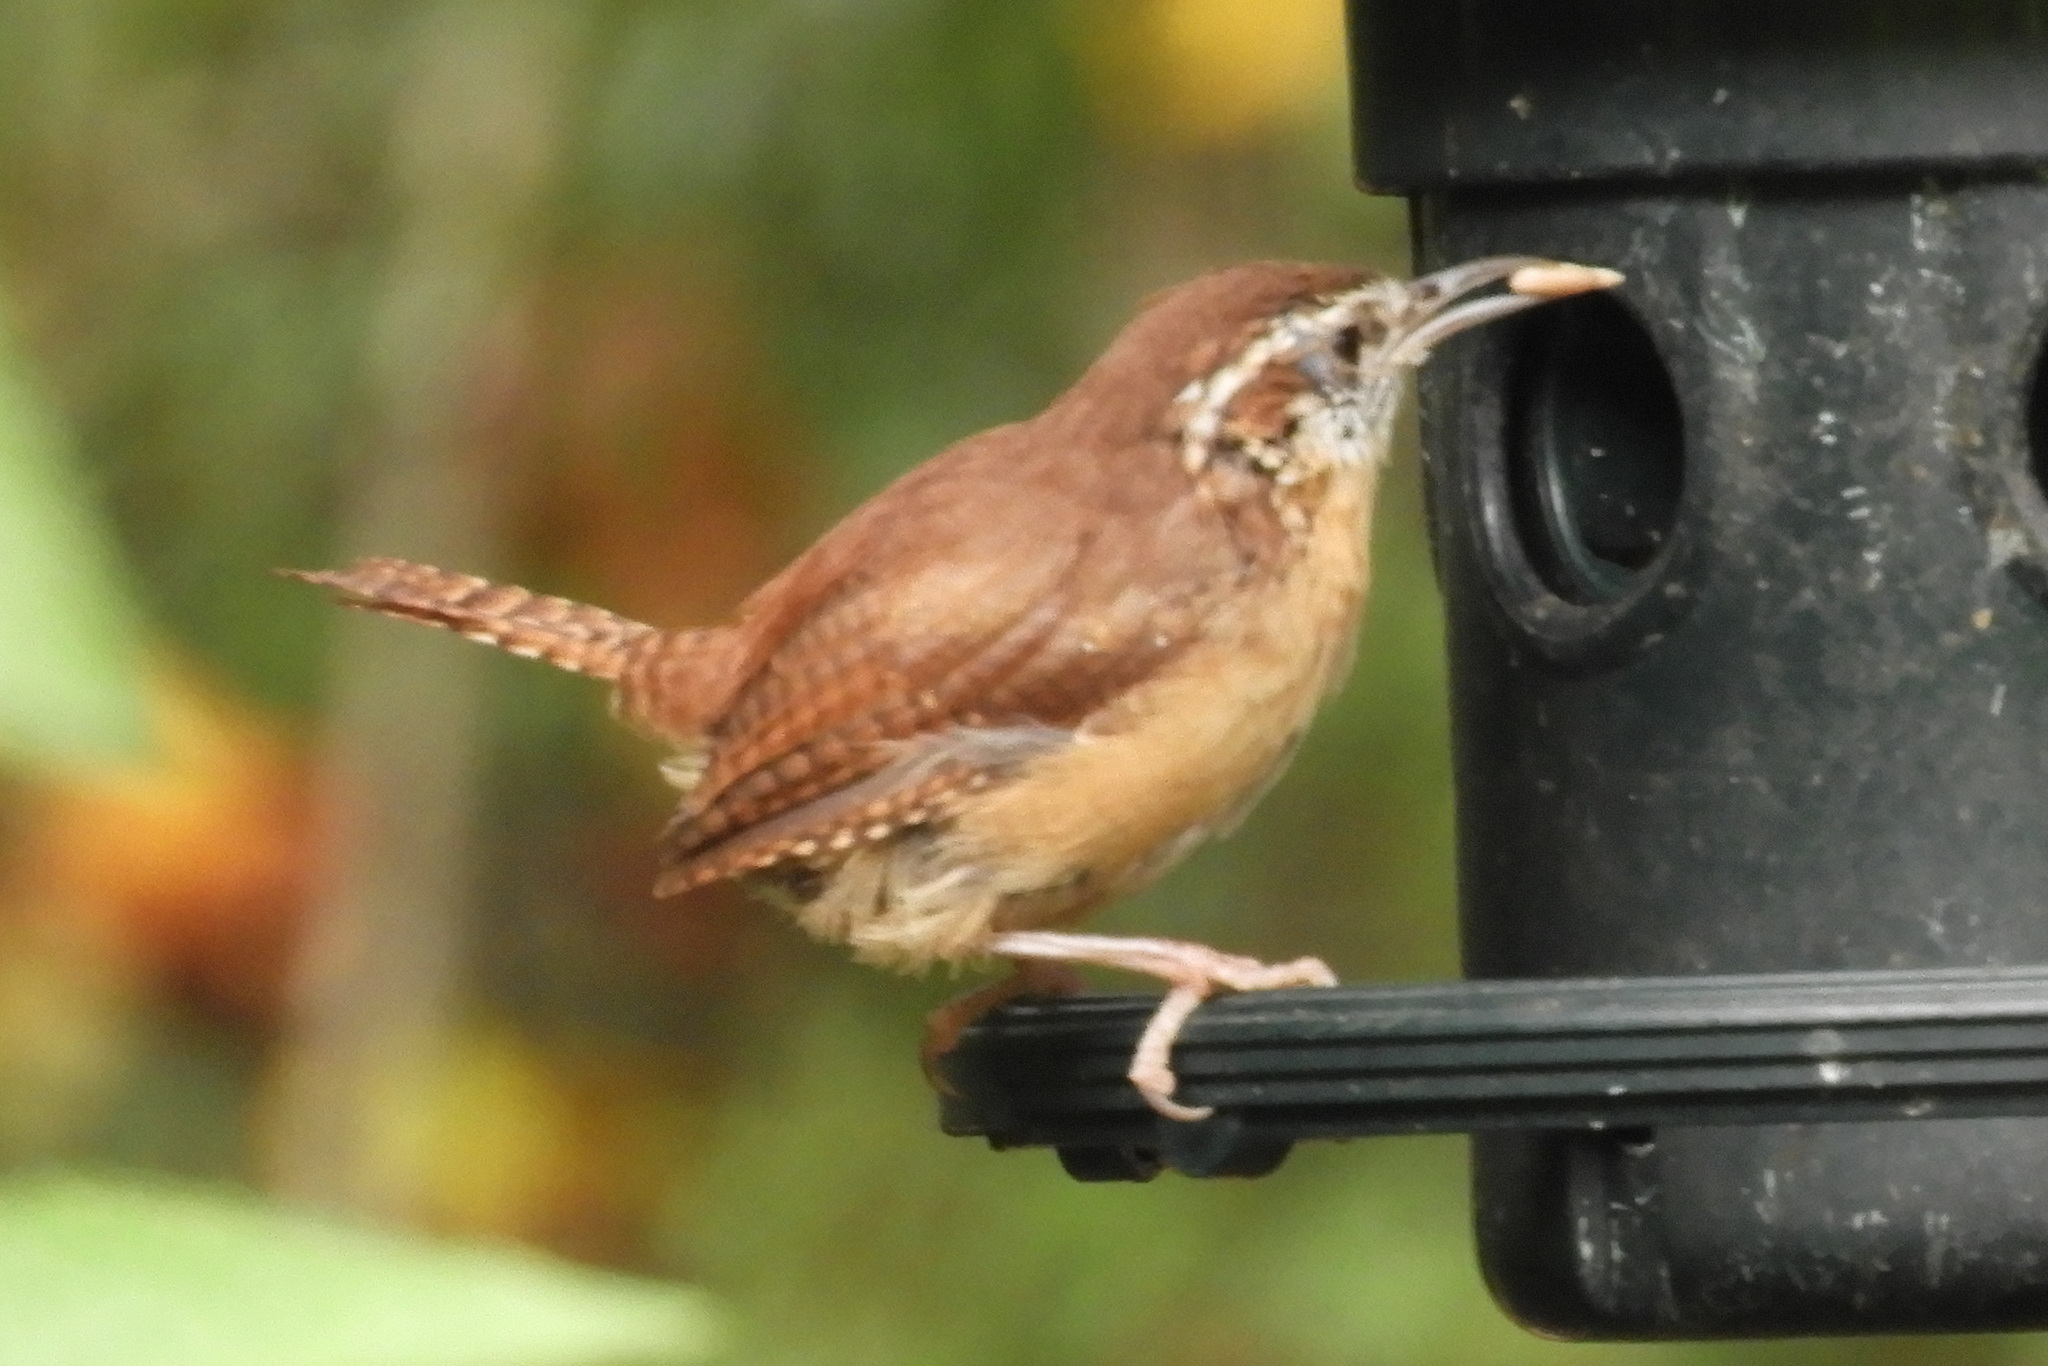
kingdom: Animalia
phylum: Chordata
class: Aves
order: Passeriformes
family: Troglodytidae
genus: Thryothorus
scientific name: Thryothorus ludovicianus
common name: Carolina wren
